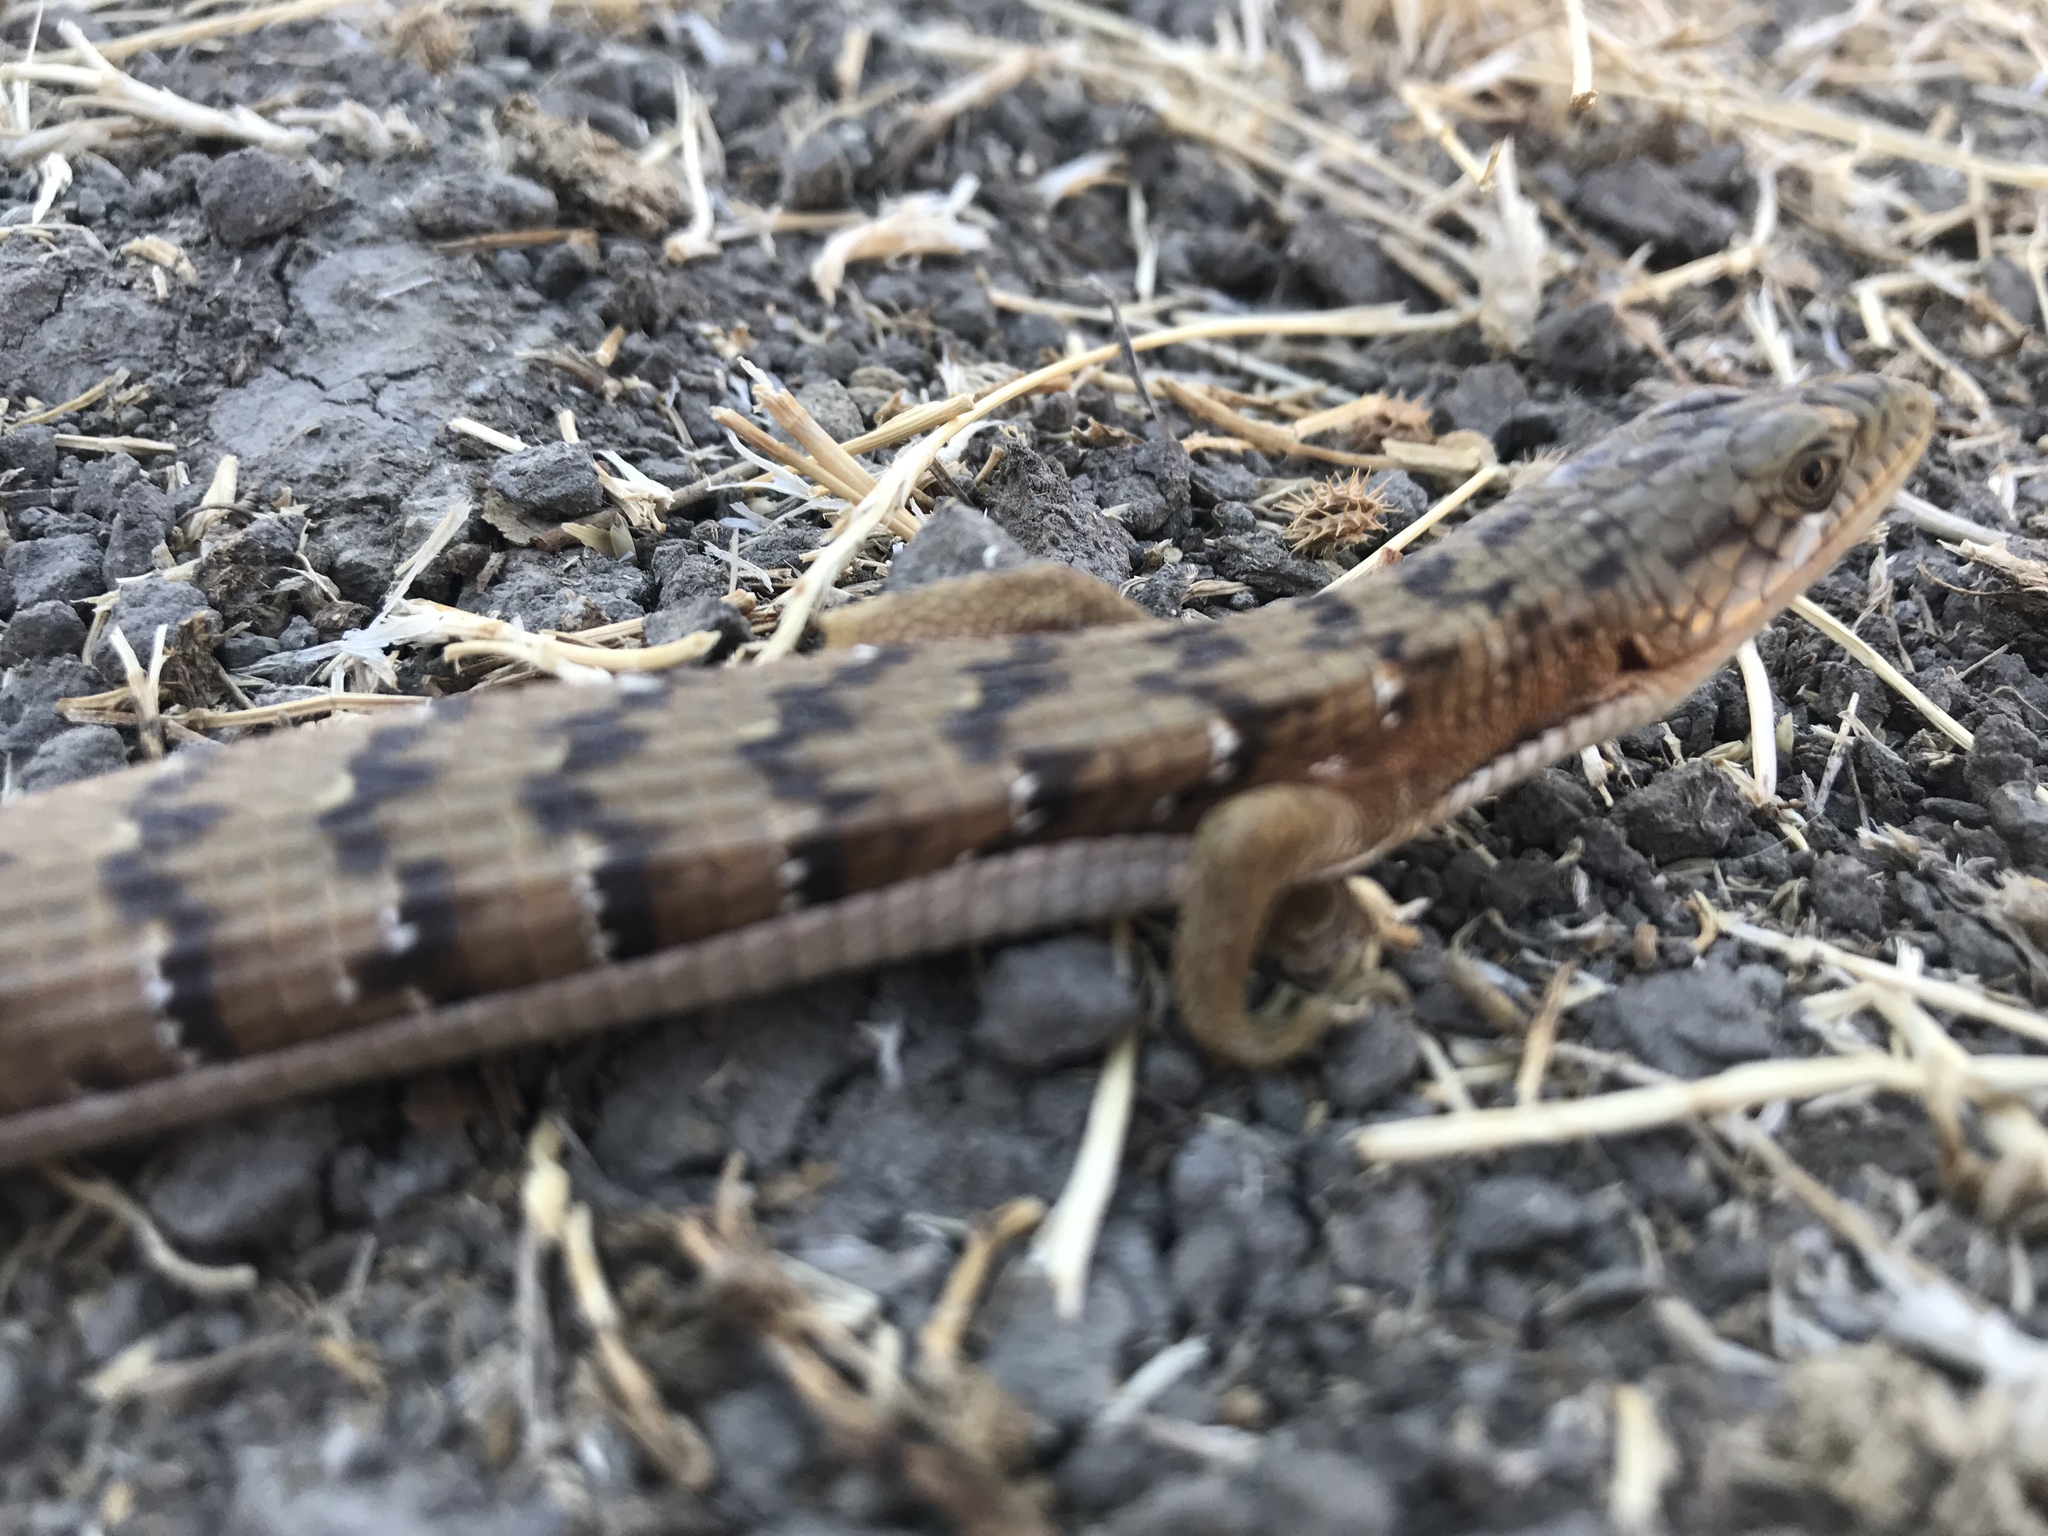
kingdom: Animalia
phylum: Chordata
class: Squamata
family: Anguidae
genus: Elgaria
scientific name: Elgaria multicarinata
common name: Southern alligator lizard
